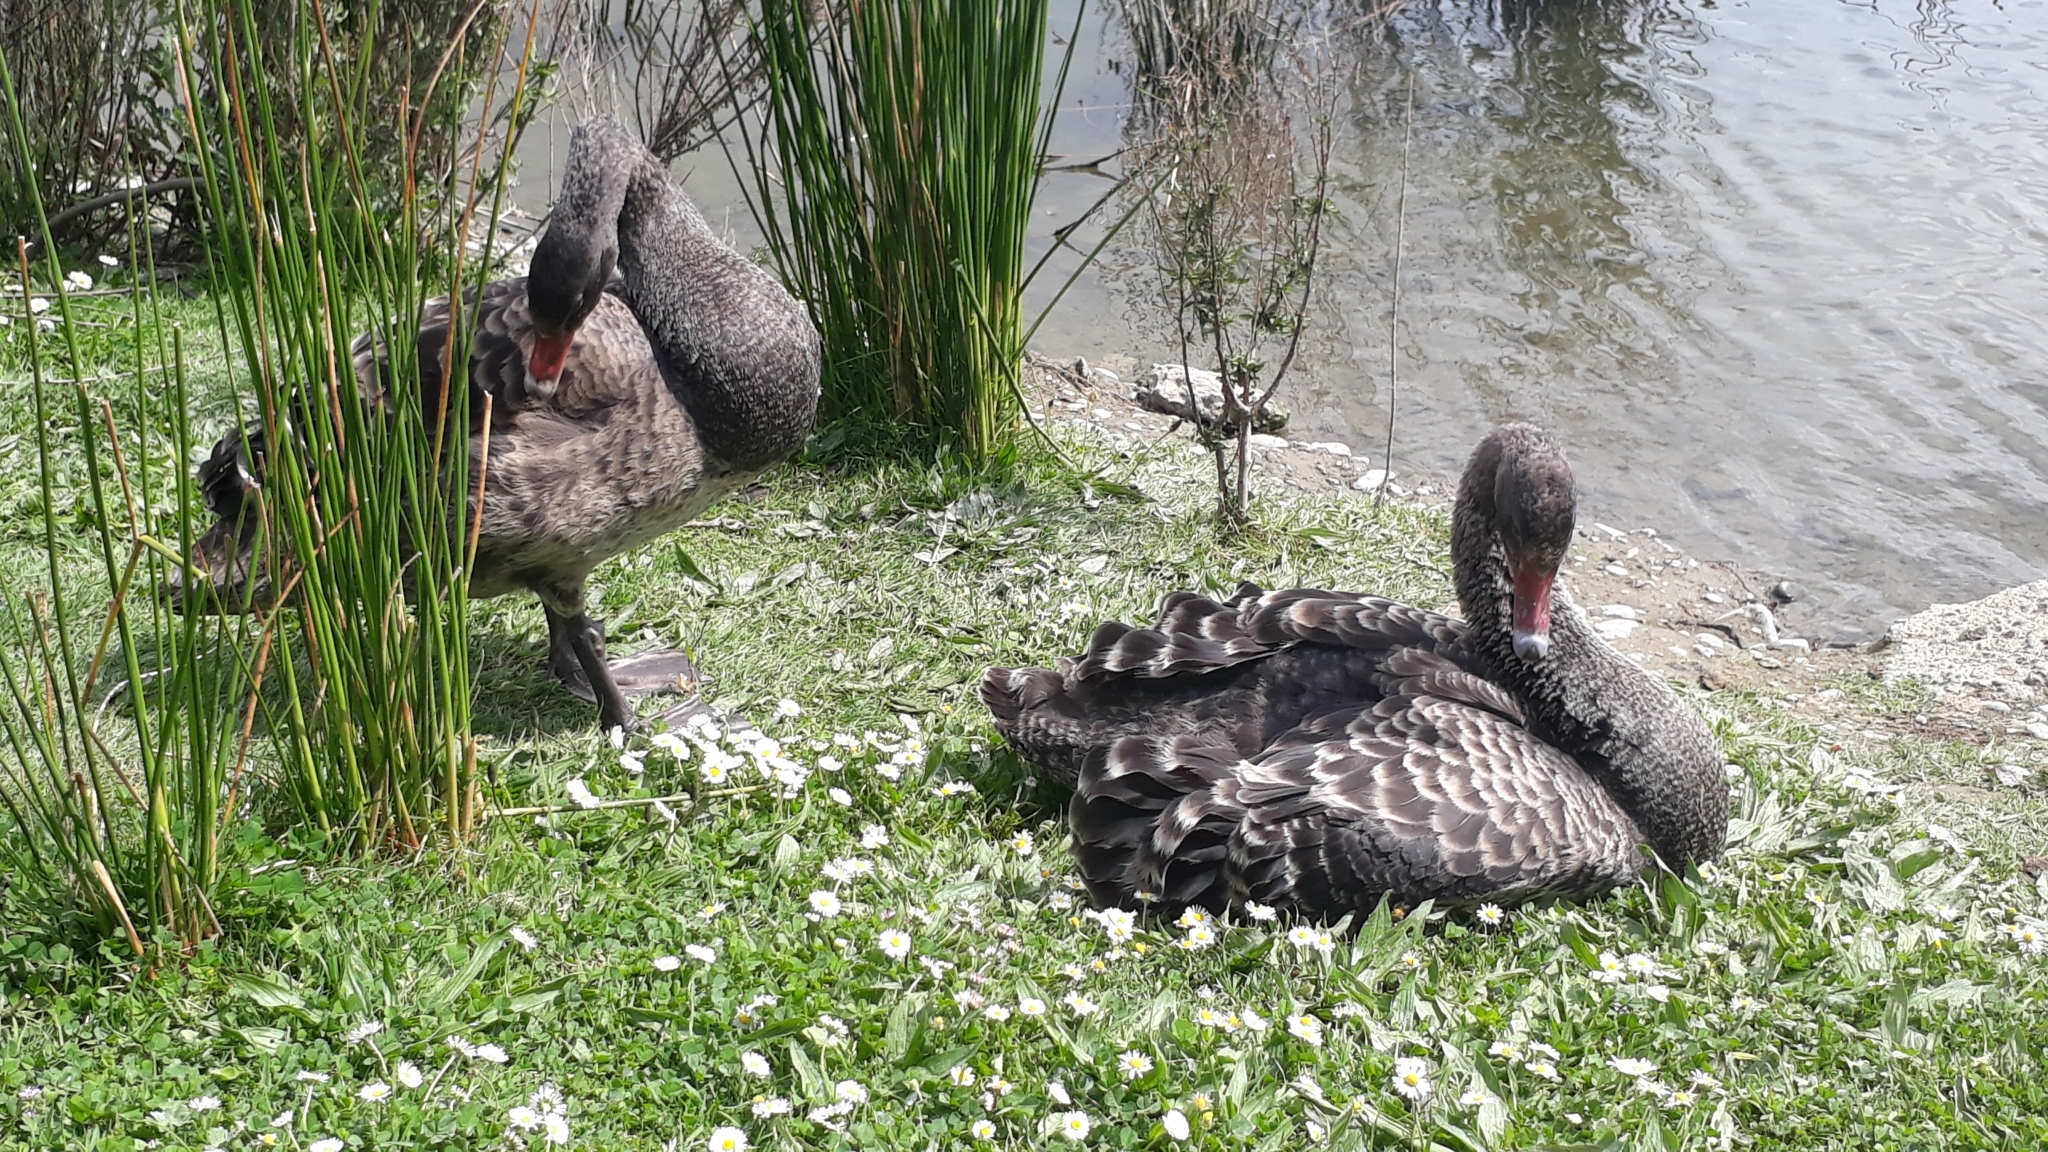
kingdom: Animalia
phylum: Chordata
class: Aves
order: Anseriformes
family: Anatidae
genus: Cygnus
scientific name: Cygnus atratus
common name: Black swan
